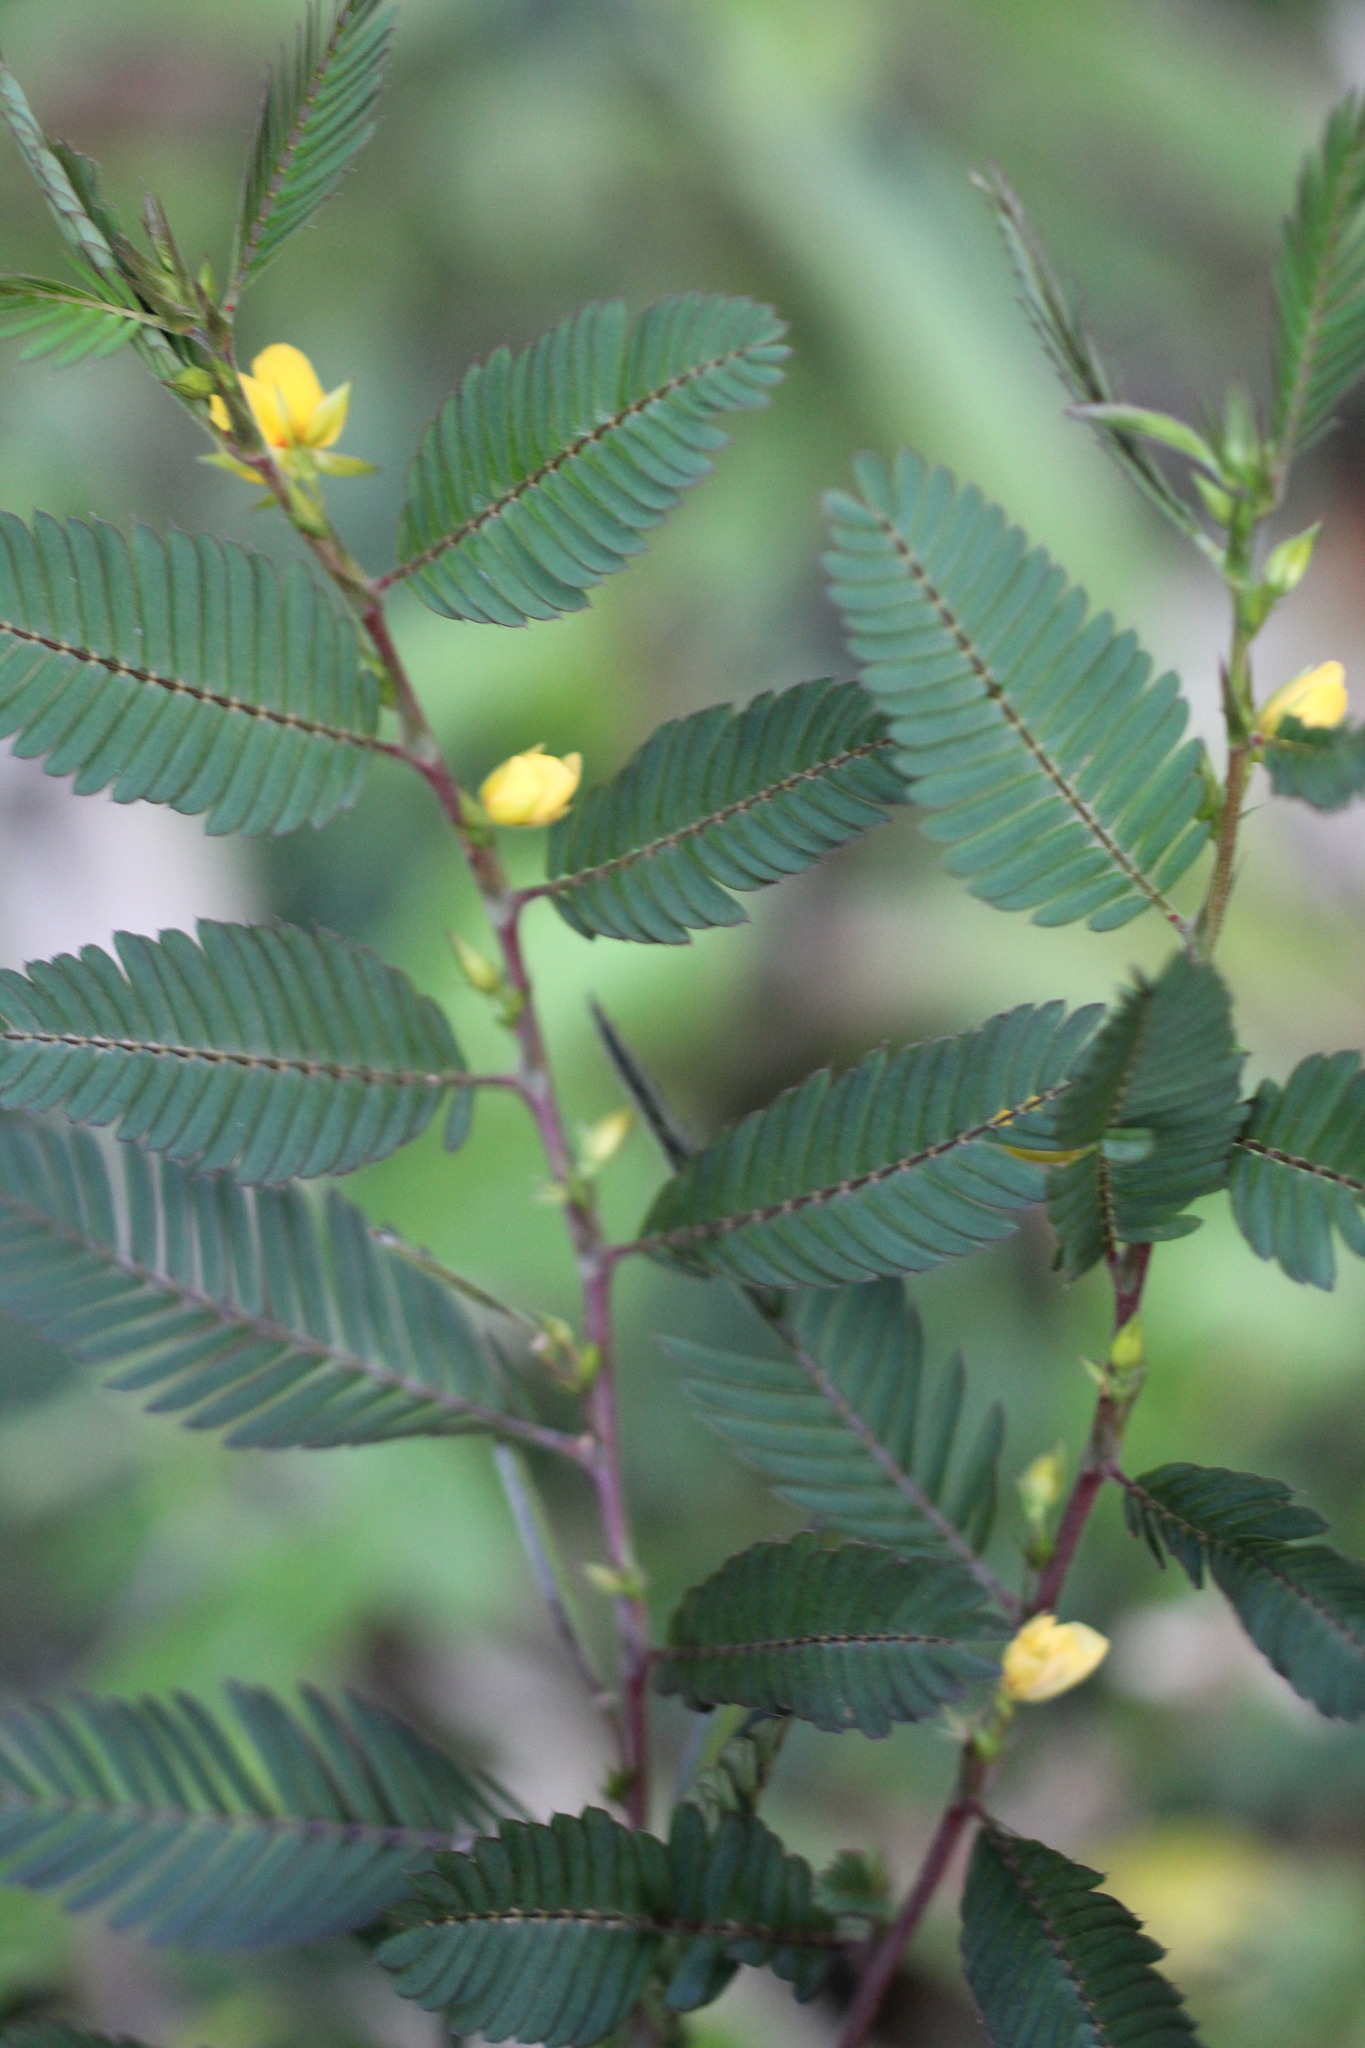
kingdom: Plantae
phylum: Tracheophyta
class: Magnoliopsida
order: Fabales
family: Fabaceae
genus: Chamaecrista
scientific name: Chamaecrista nictitans
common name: Sensitive cassia
